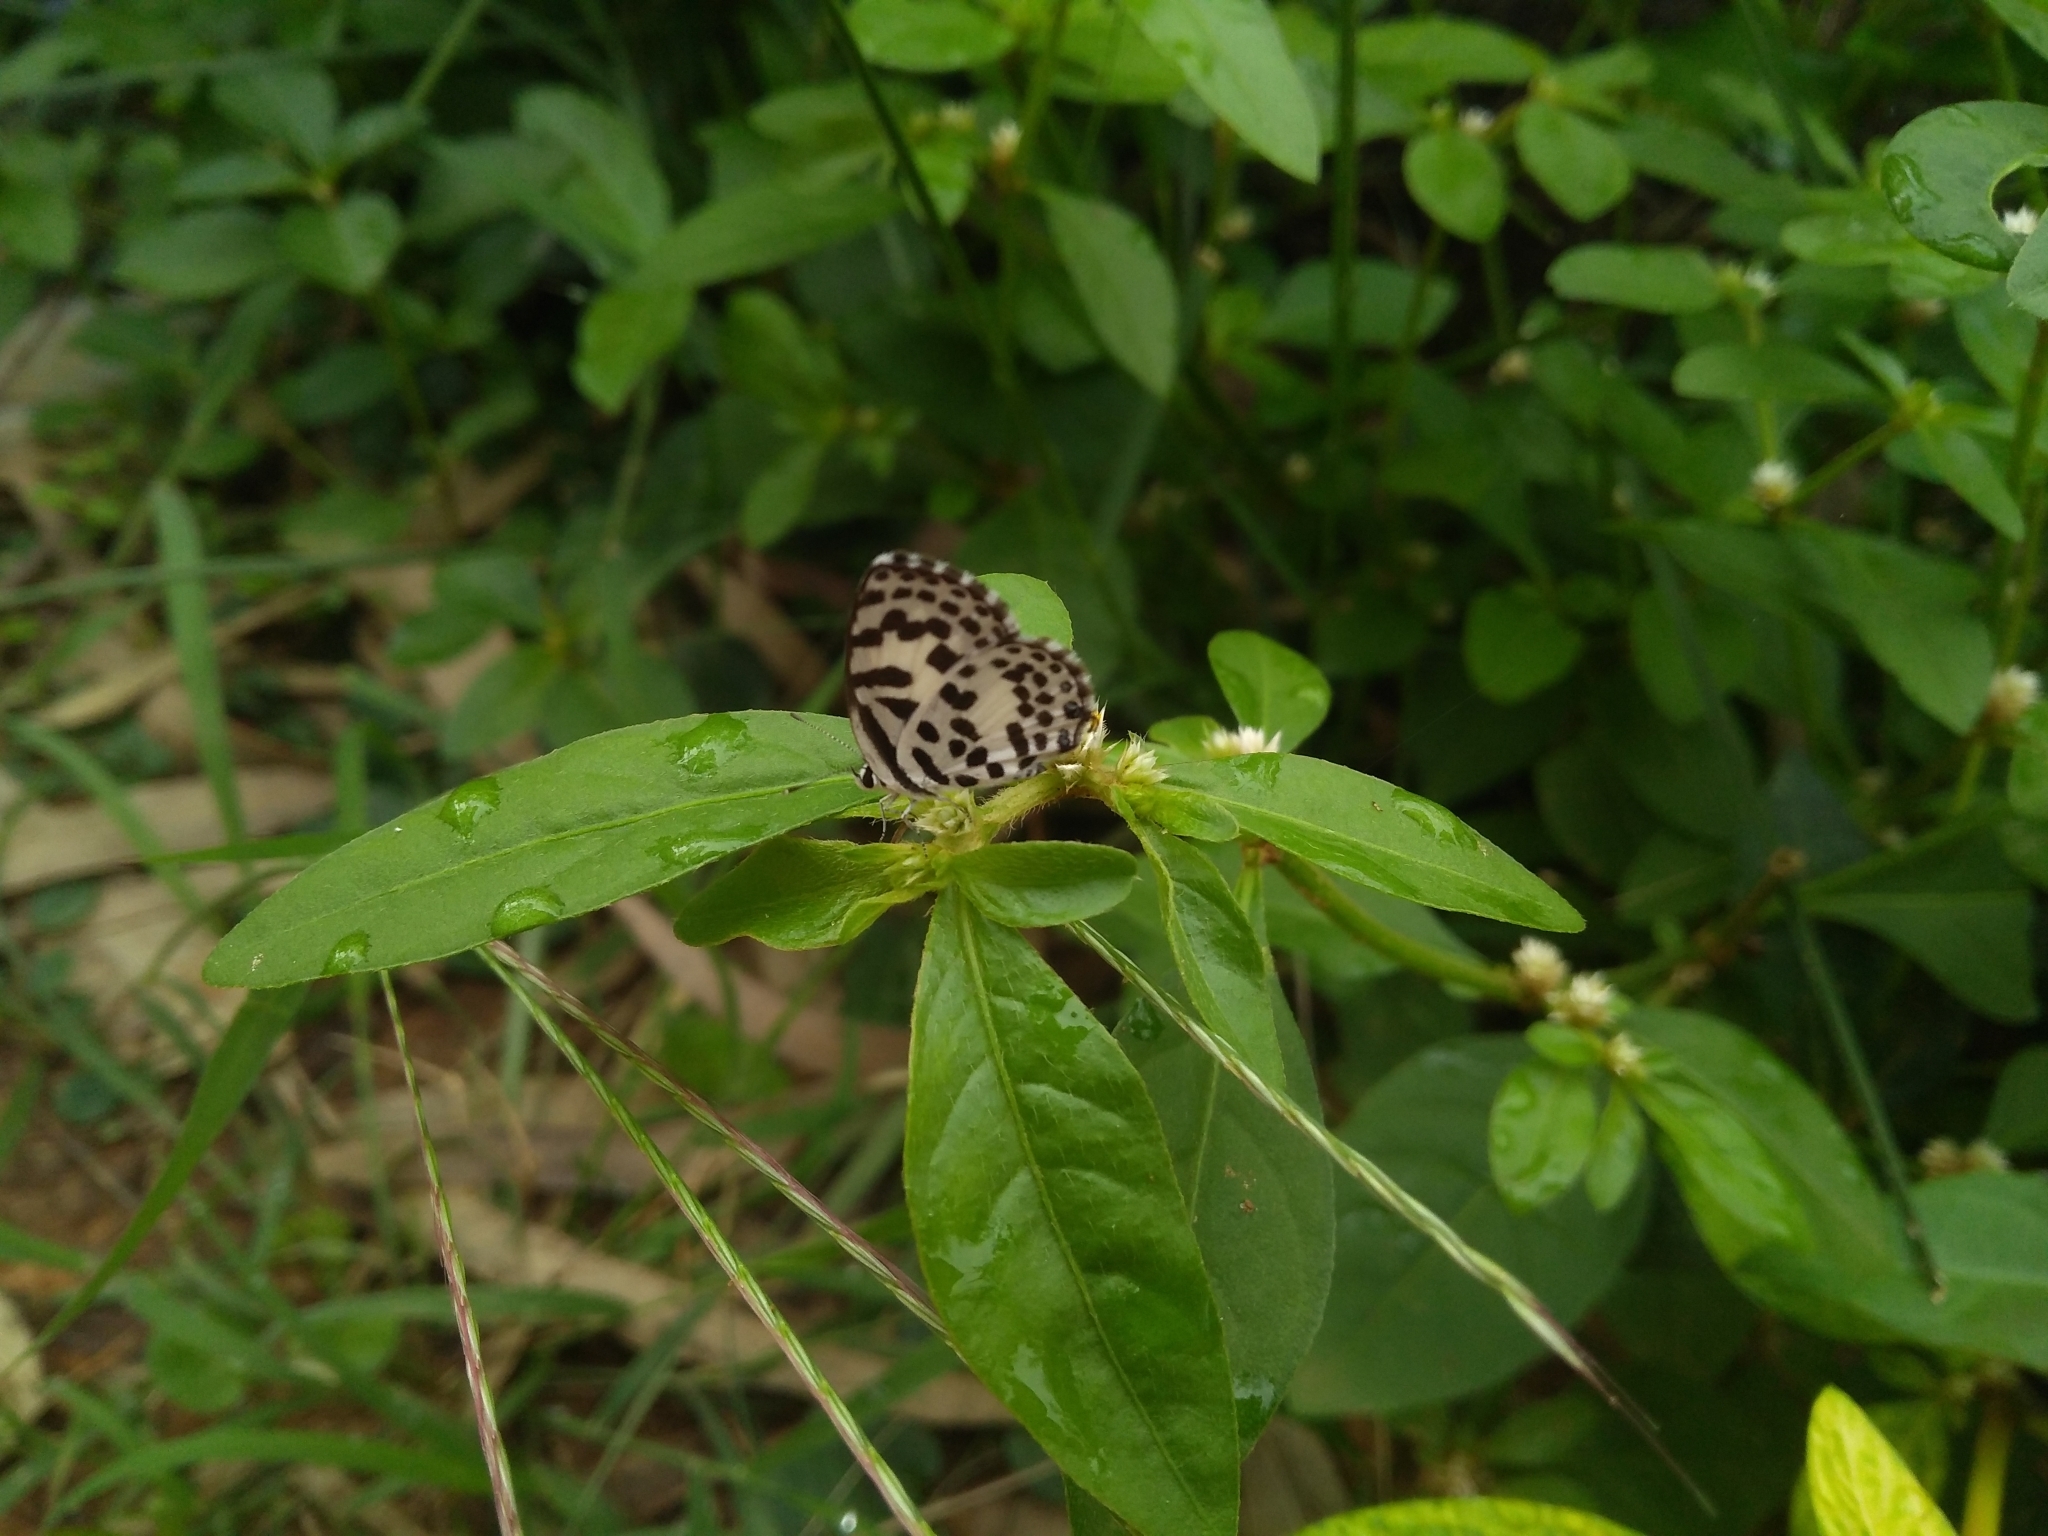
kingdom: Animalia
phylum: Arthropoda
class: Insecta
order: Lepidoptera
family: Lycaenidae
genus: Castalius
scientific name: Castalius rosimon
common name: Common pierrot
